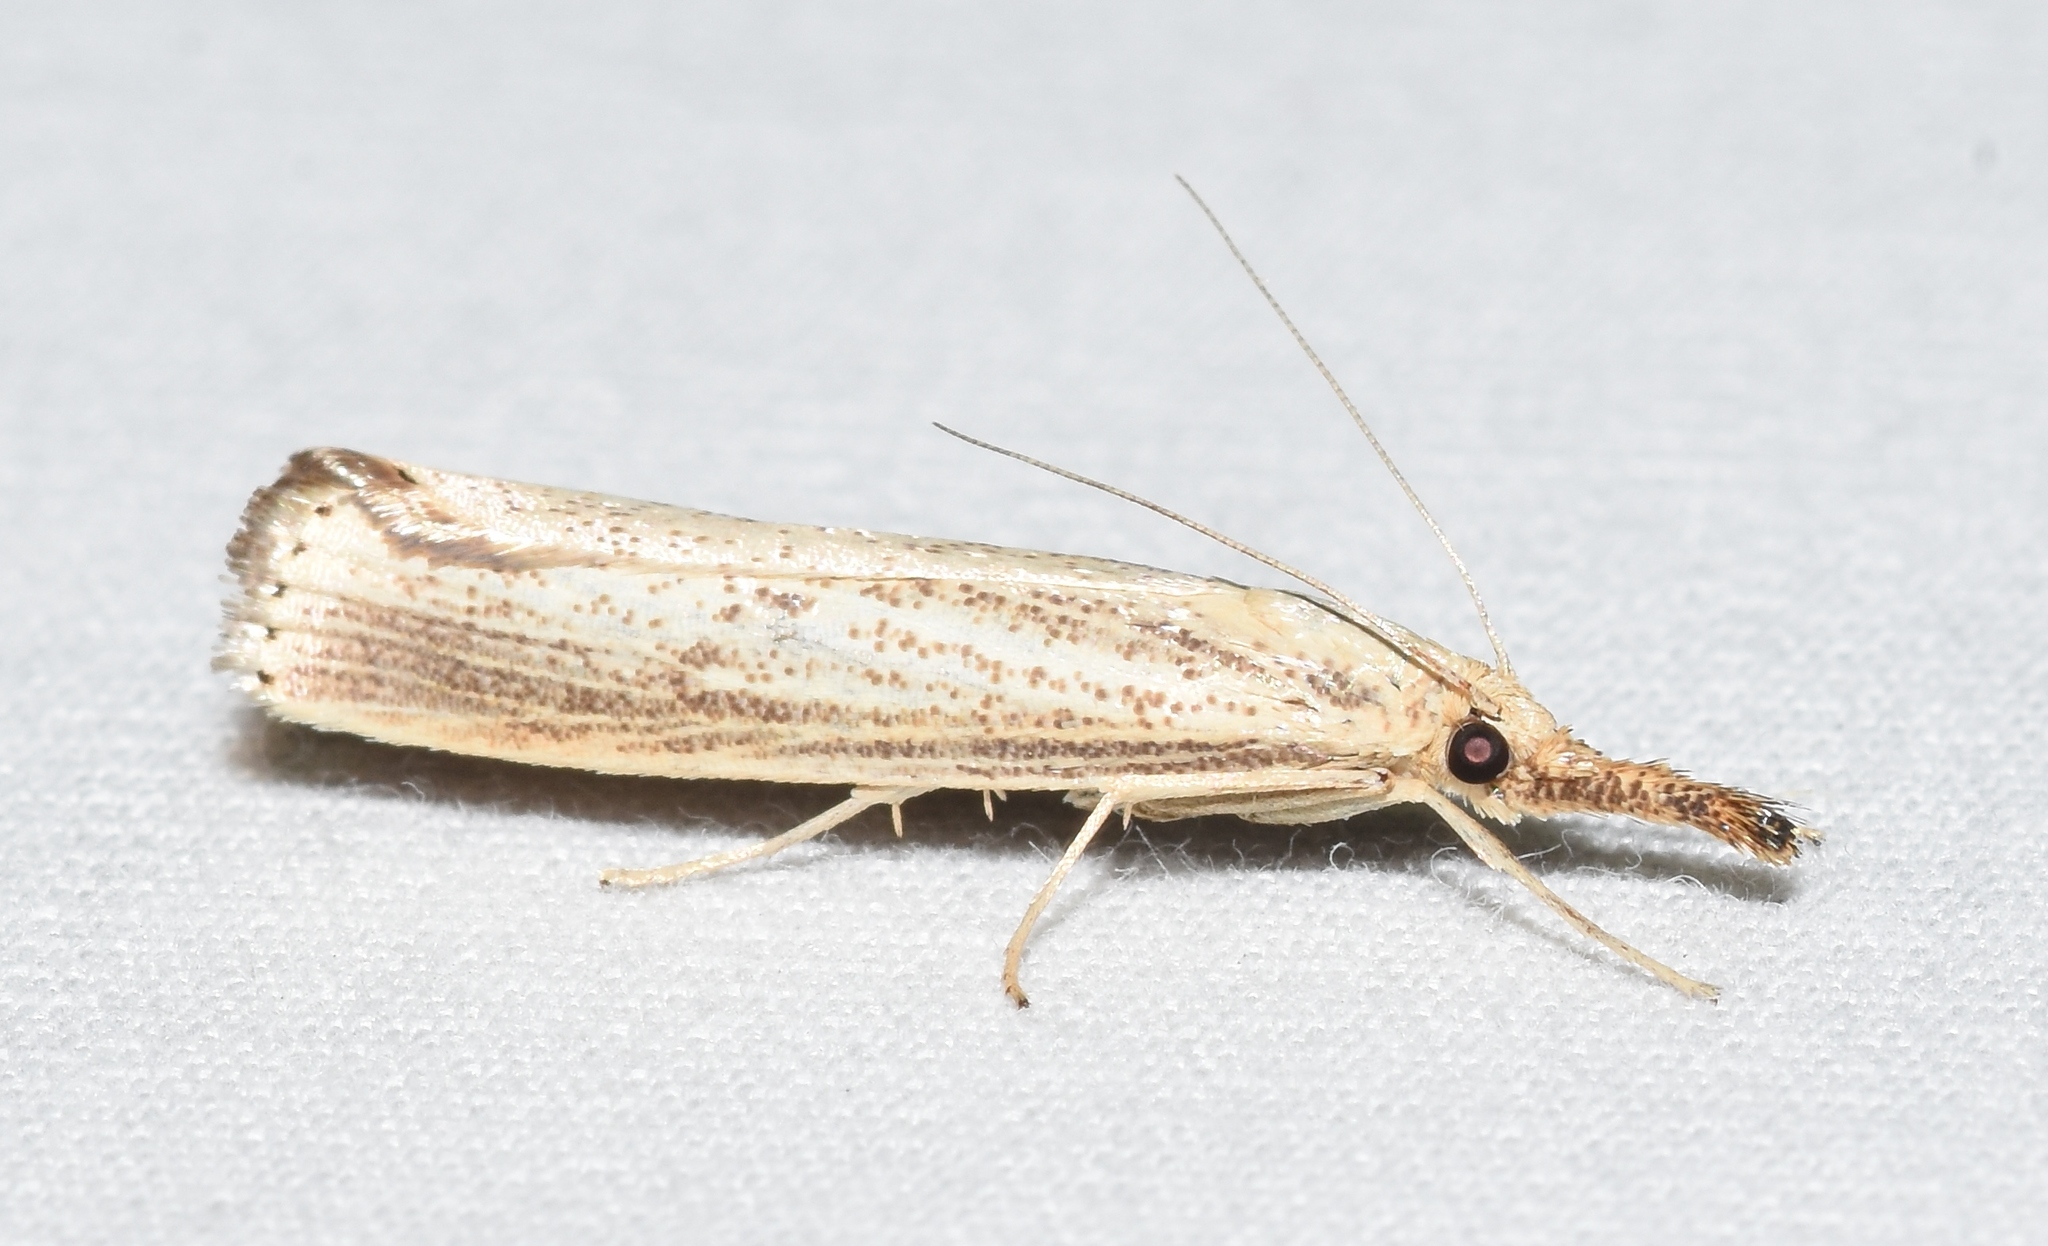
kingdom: Animalia
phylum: Arthropoda
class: Insecta
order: Lepidoptera
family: Crambidae
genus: Agriphila
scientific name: Agriphila vulgivagellus
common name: Vagabond crambus moth
